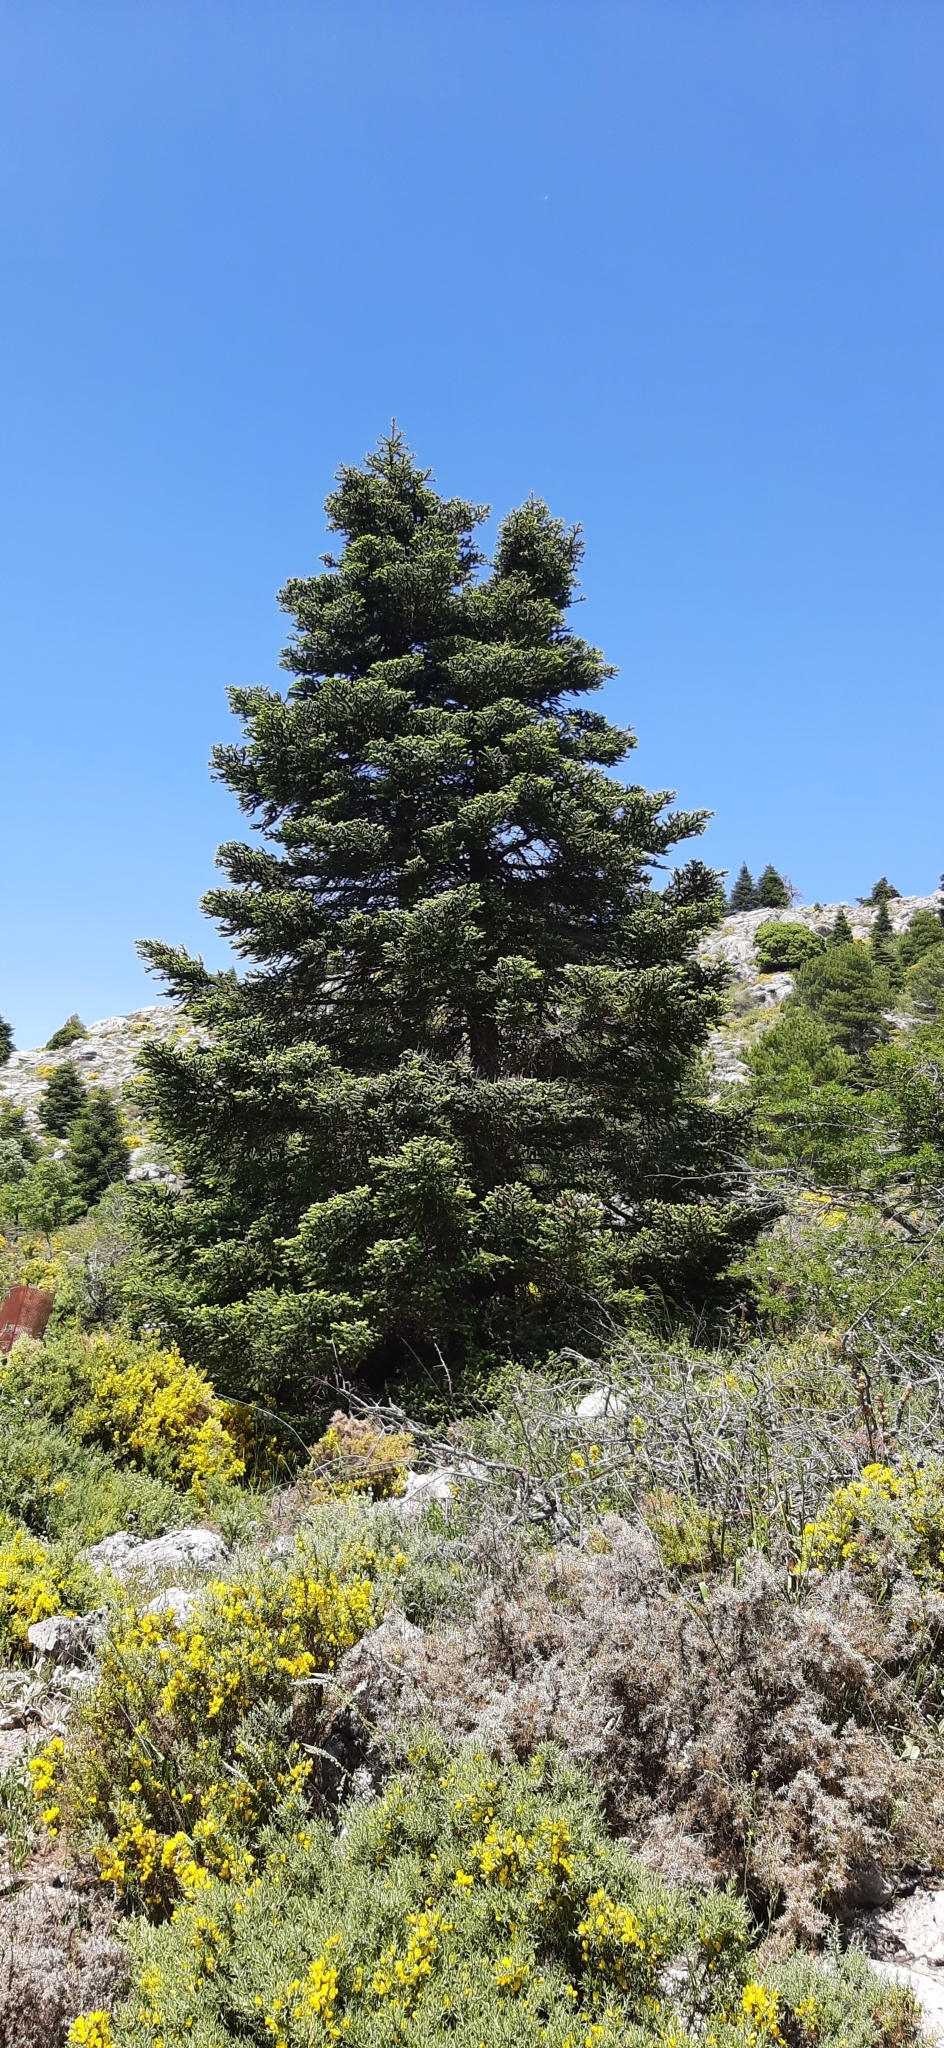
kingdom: Plantae
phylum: Tracheophyta
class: Pinopsida
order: Pinales
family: Pinaceae
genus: Abies
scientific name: Abies pinsapo
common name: Spanish fir
